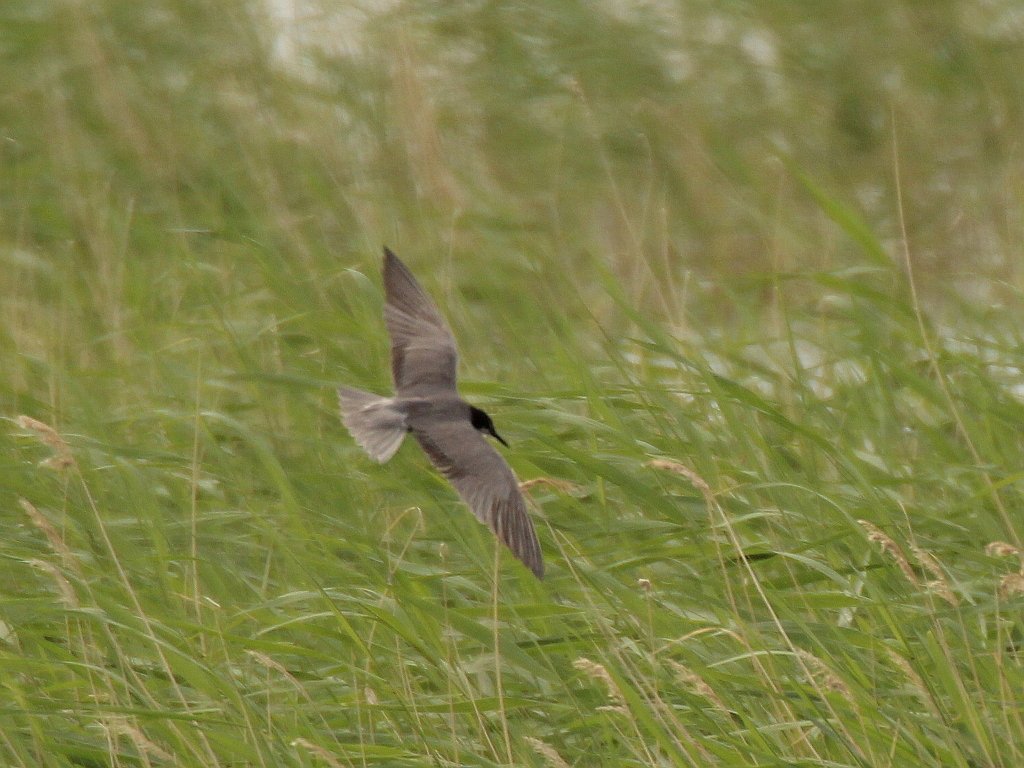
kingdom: Animalia
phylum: Chordata
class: Aves
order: Charadriiformes
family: Laridae
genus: Chlidonias
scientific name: Chlidonias niger
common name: Black tern
